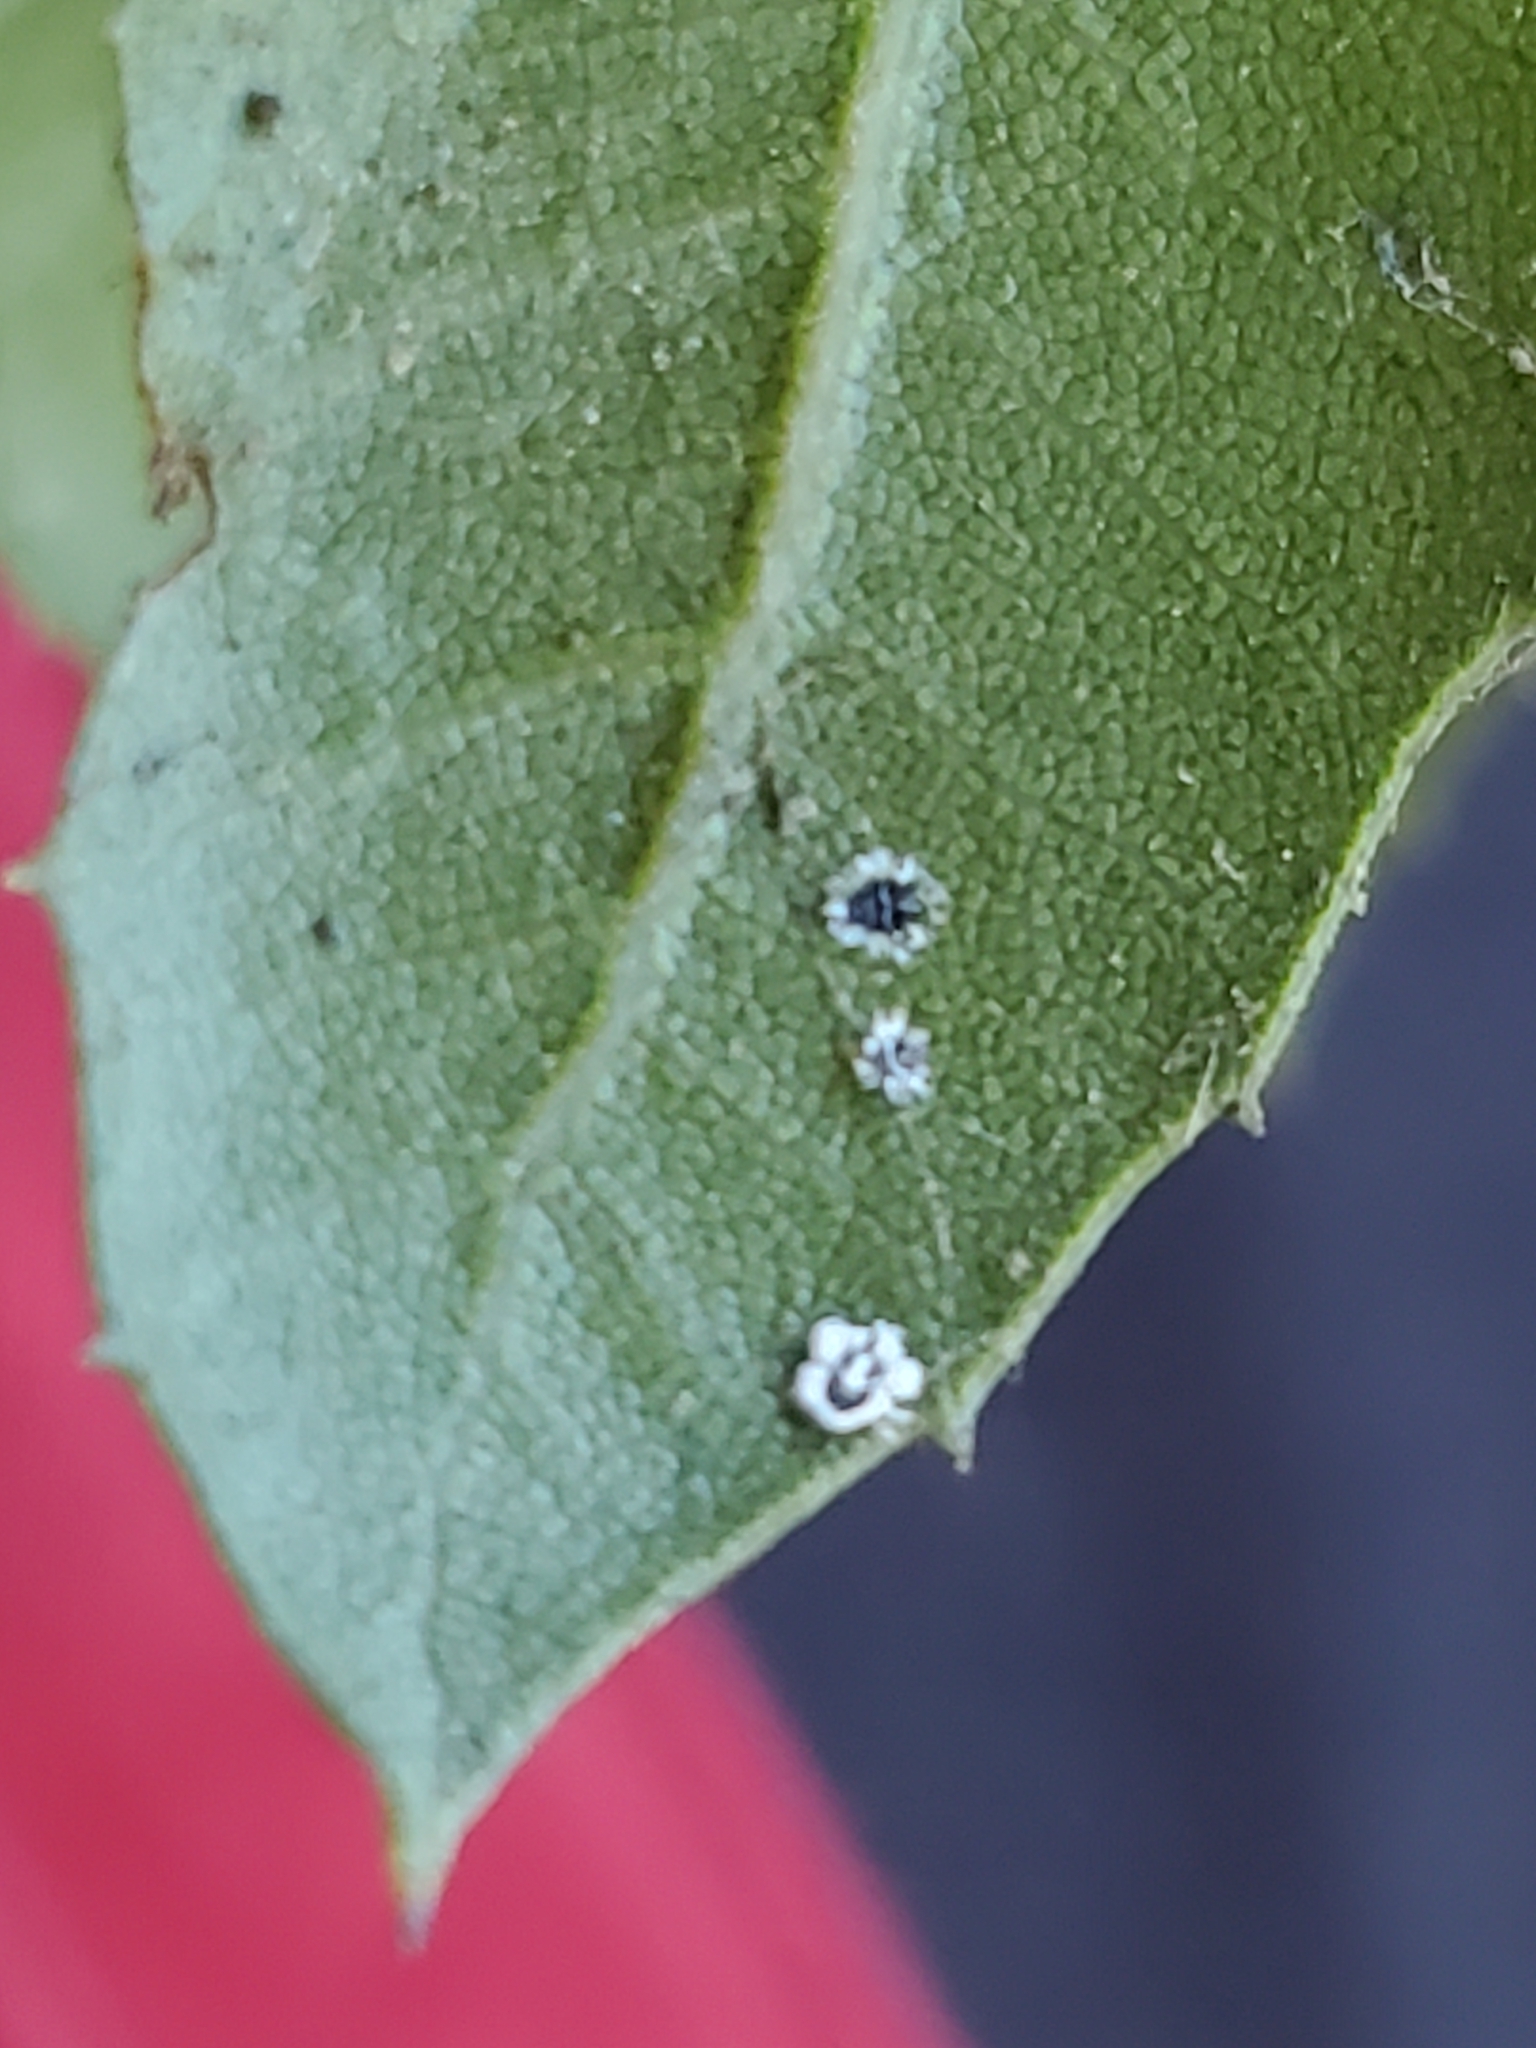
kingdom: Animalia
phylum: Arthropoda
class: Insecta
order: Hemiptera
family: Aleyrodidae
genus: Aleuroplatus
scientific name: Aleuroplatus coronata
